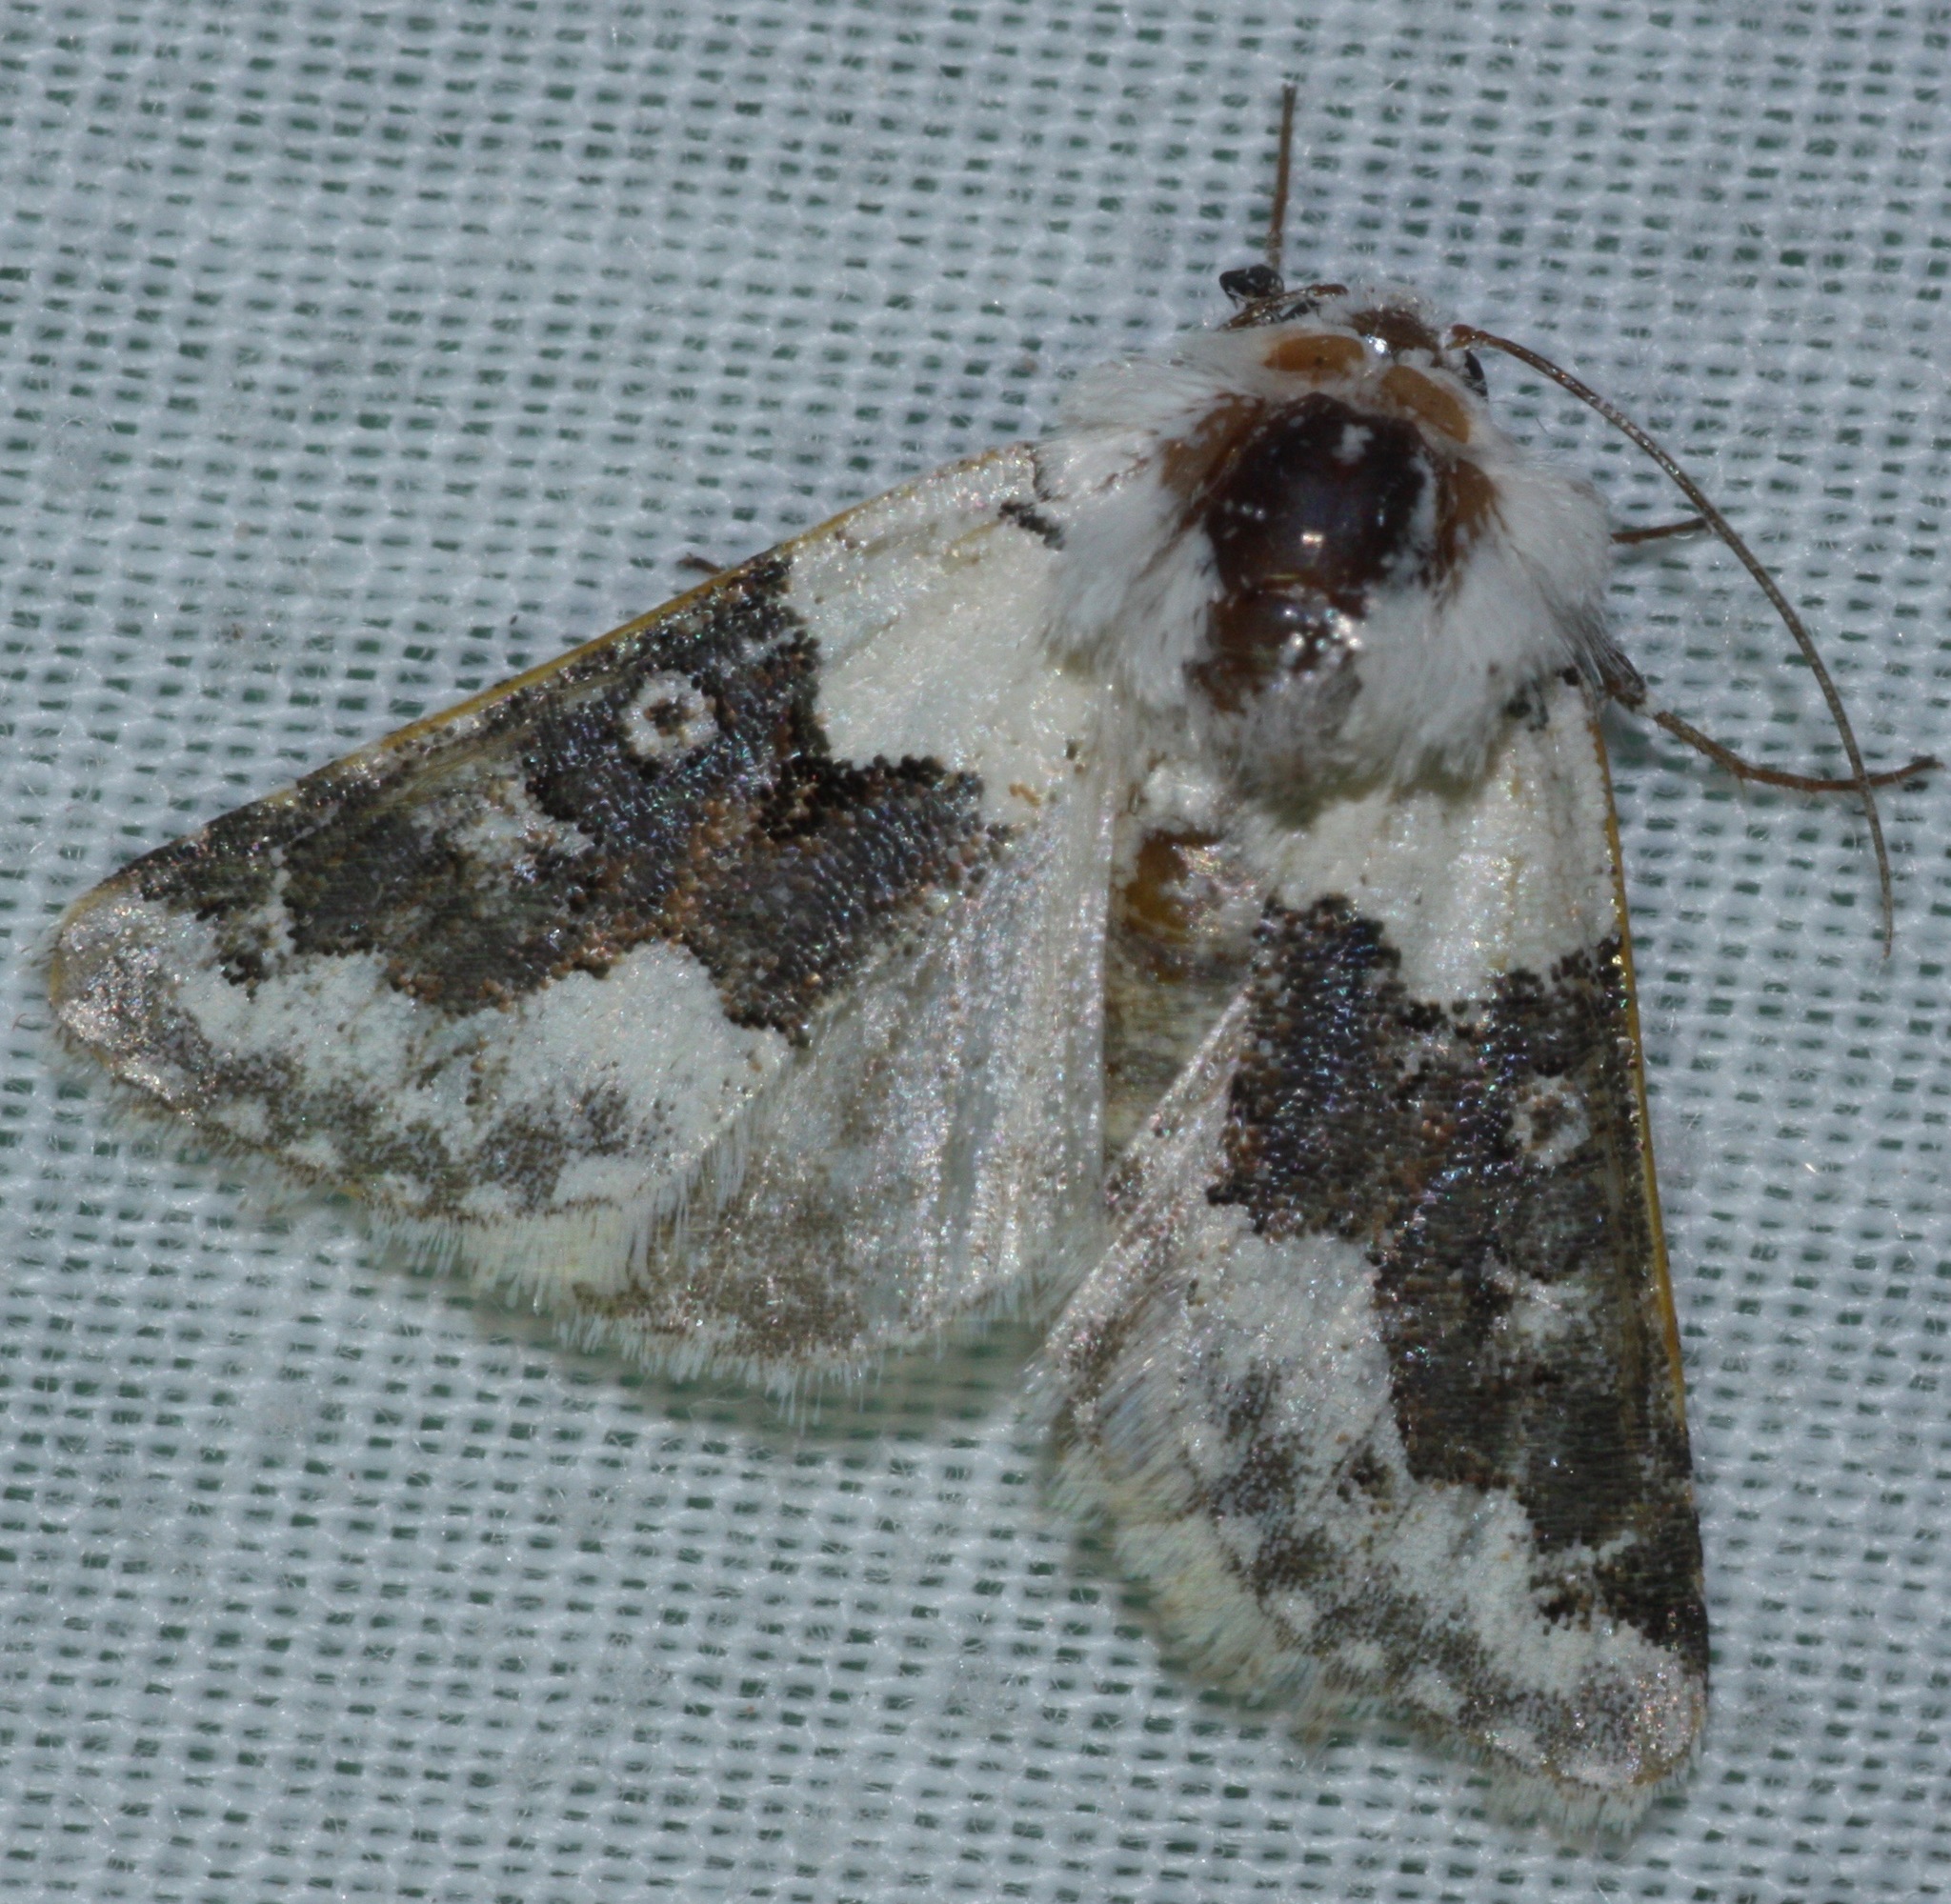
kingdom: Animalia
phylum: Arthropoda
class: Insecta
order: Lepidoptera
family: Noctuidae
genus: Triocnemis
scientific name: Triocnemis saporis
